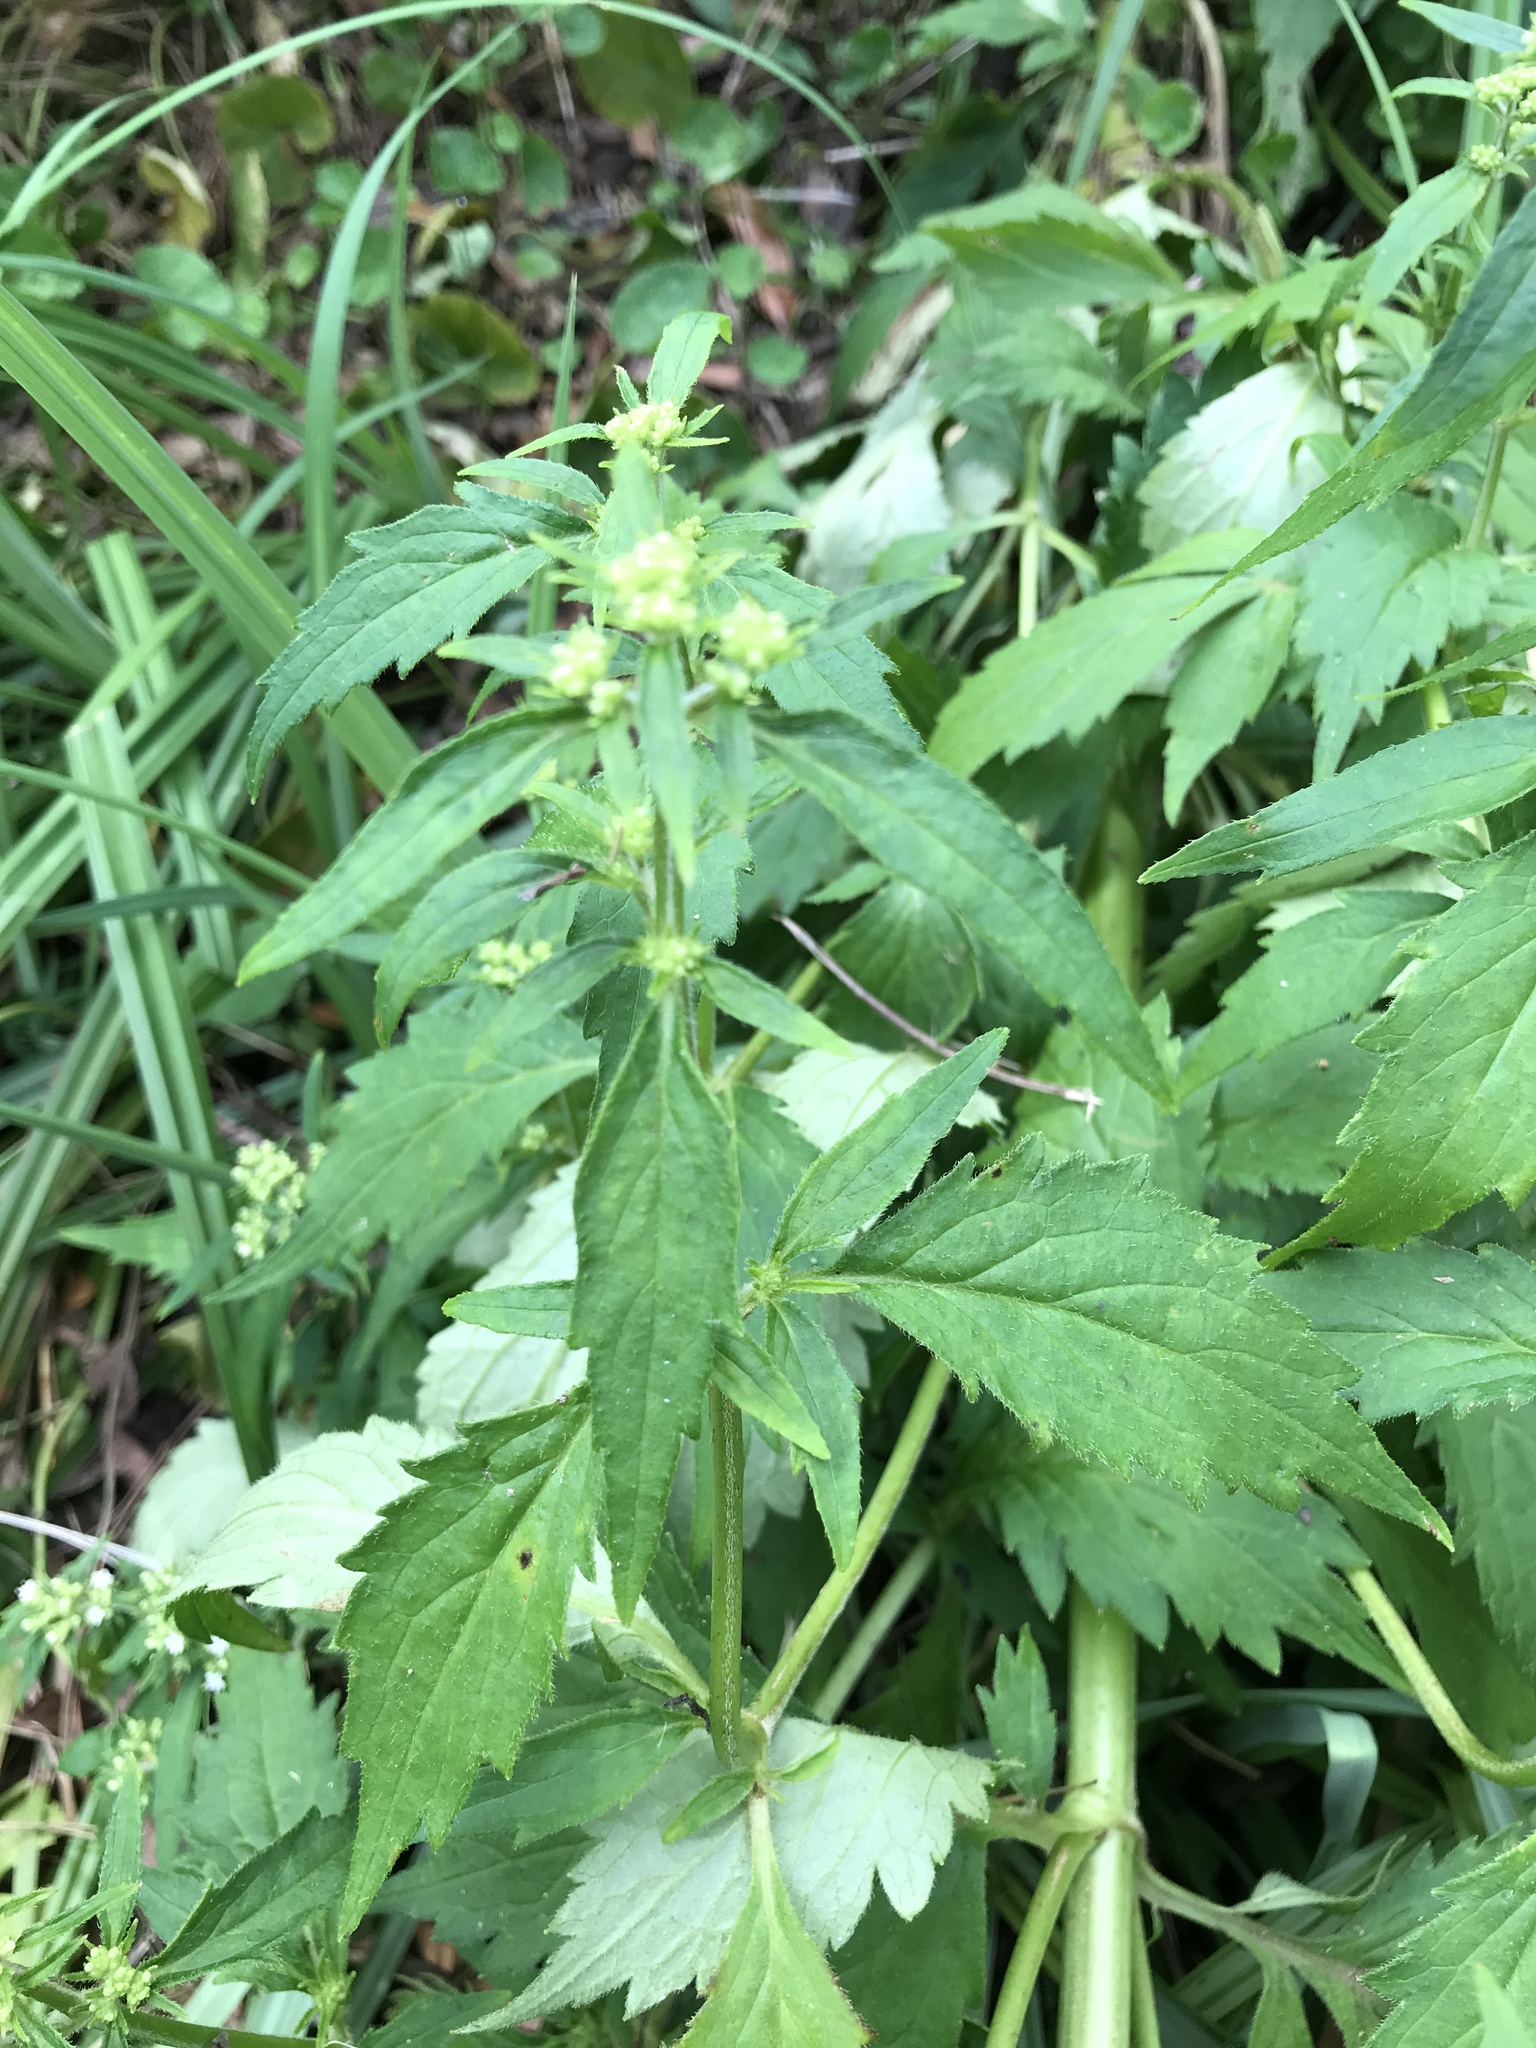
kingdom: Plantae
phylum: Tracheophyta
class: Magnoliopsida
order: Dipsacales
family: Caprifoliaceae
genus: Patrinia
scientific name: Patrinia villosa
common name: Patrinia
